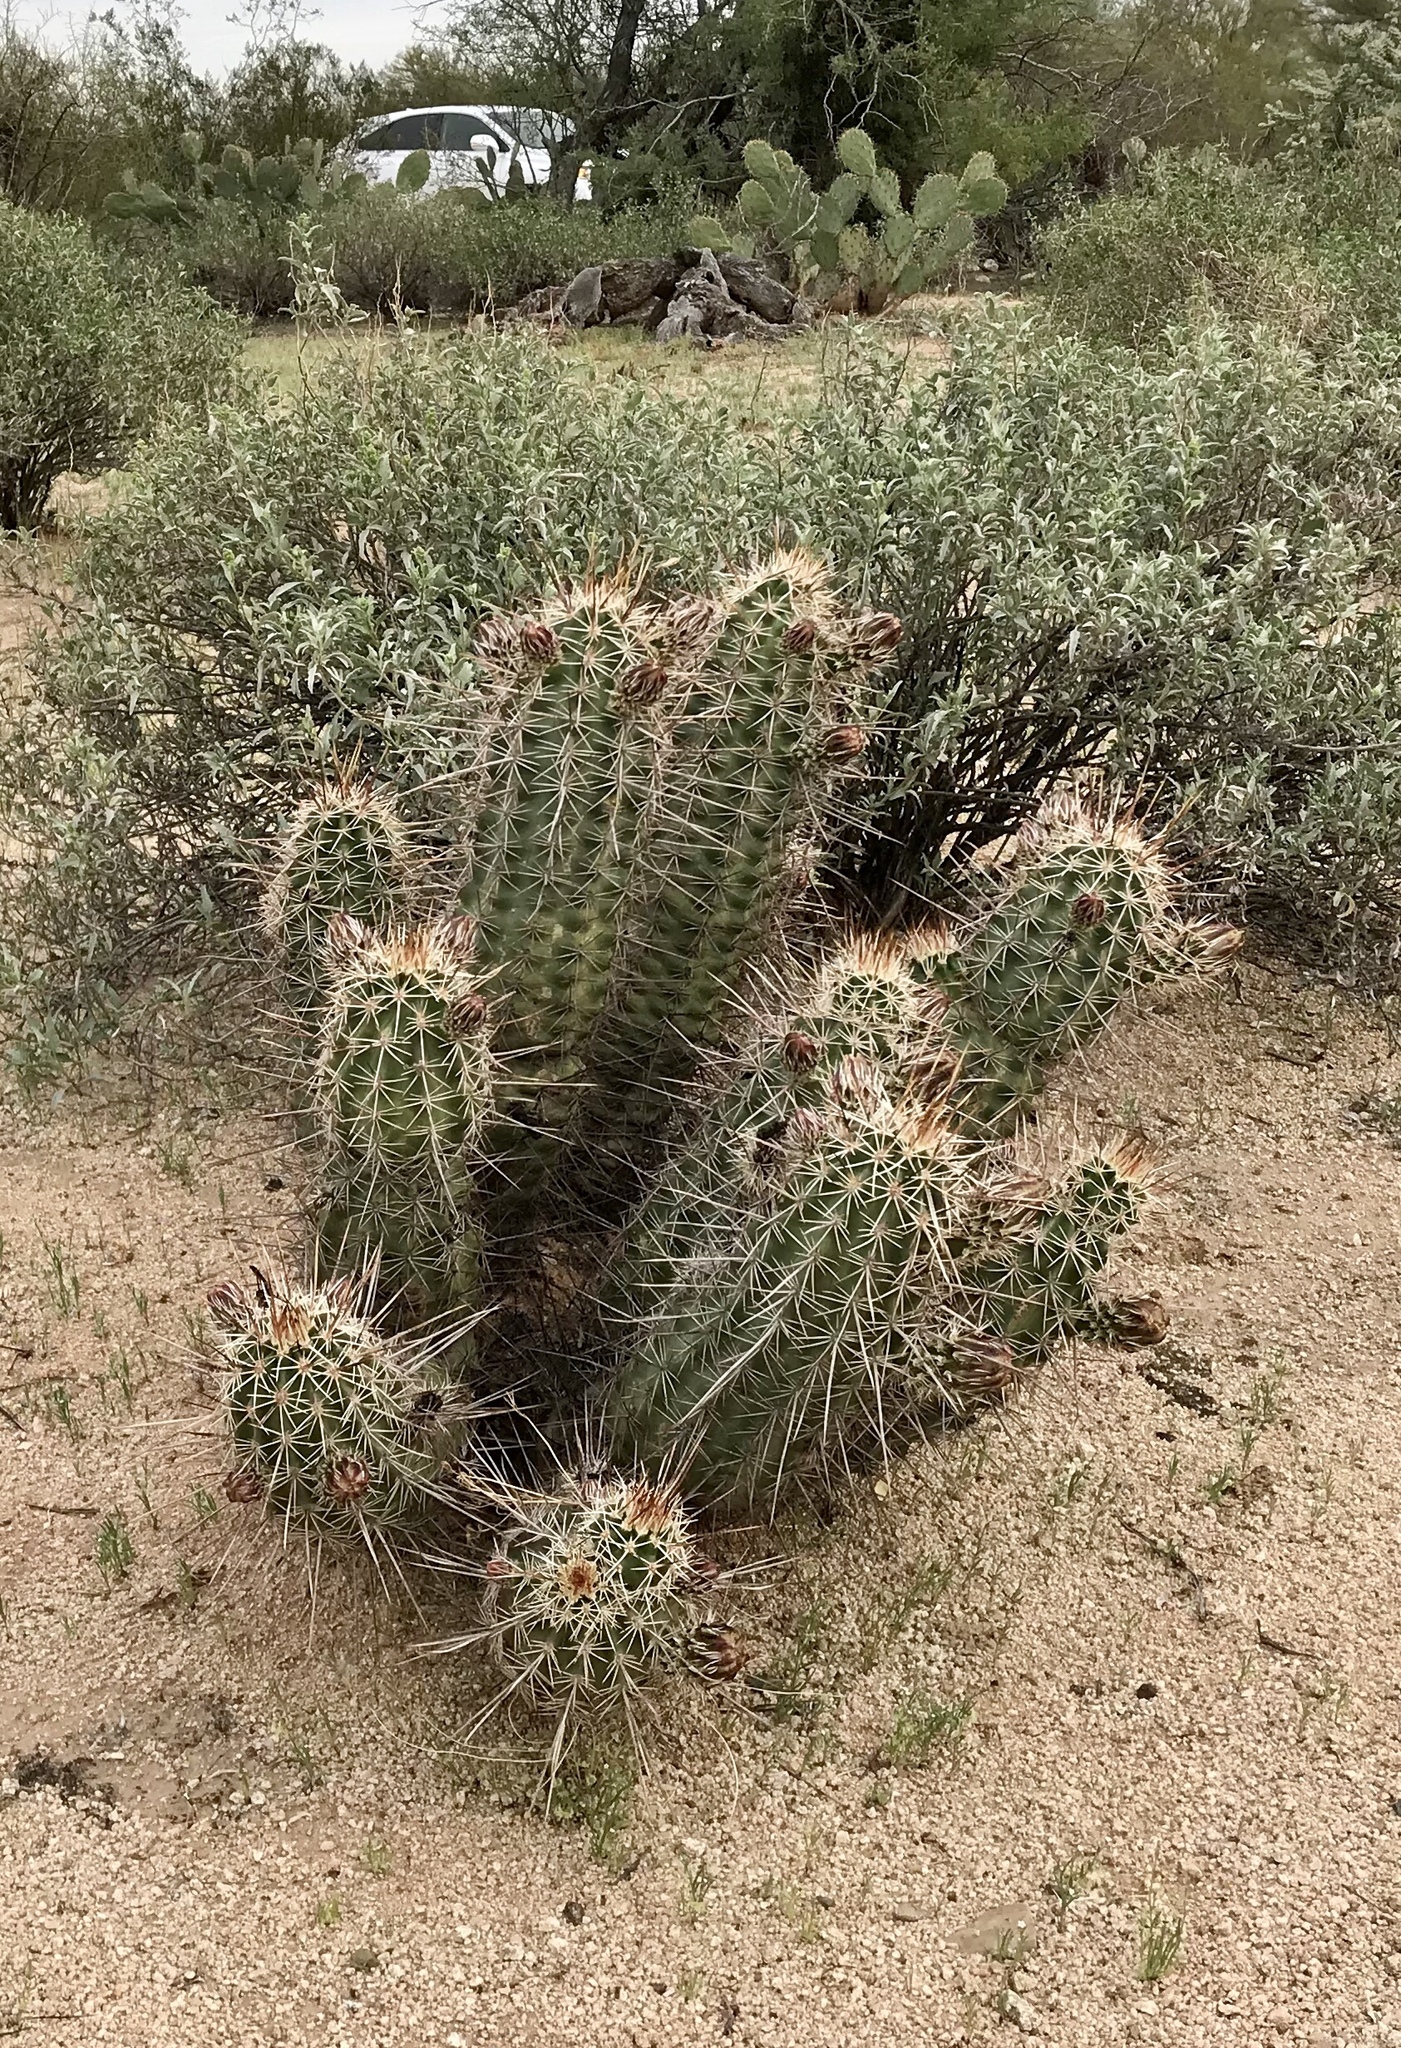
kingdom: Plantae
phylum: Tracheophyta
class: Magnoliopsida
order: Caryophyllales
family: Cactaceae
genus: Echinocereus
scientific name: Echinocereus fasciculatus
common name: Bundle hedgehog
